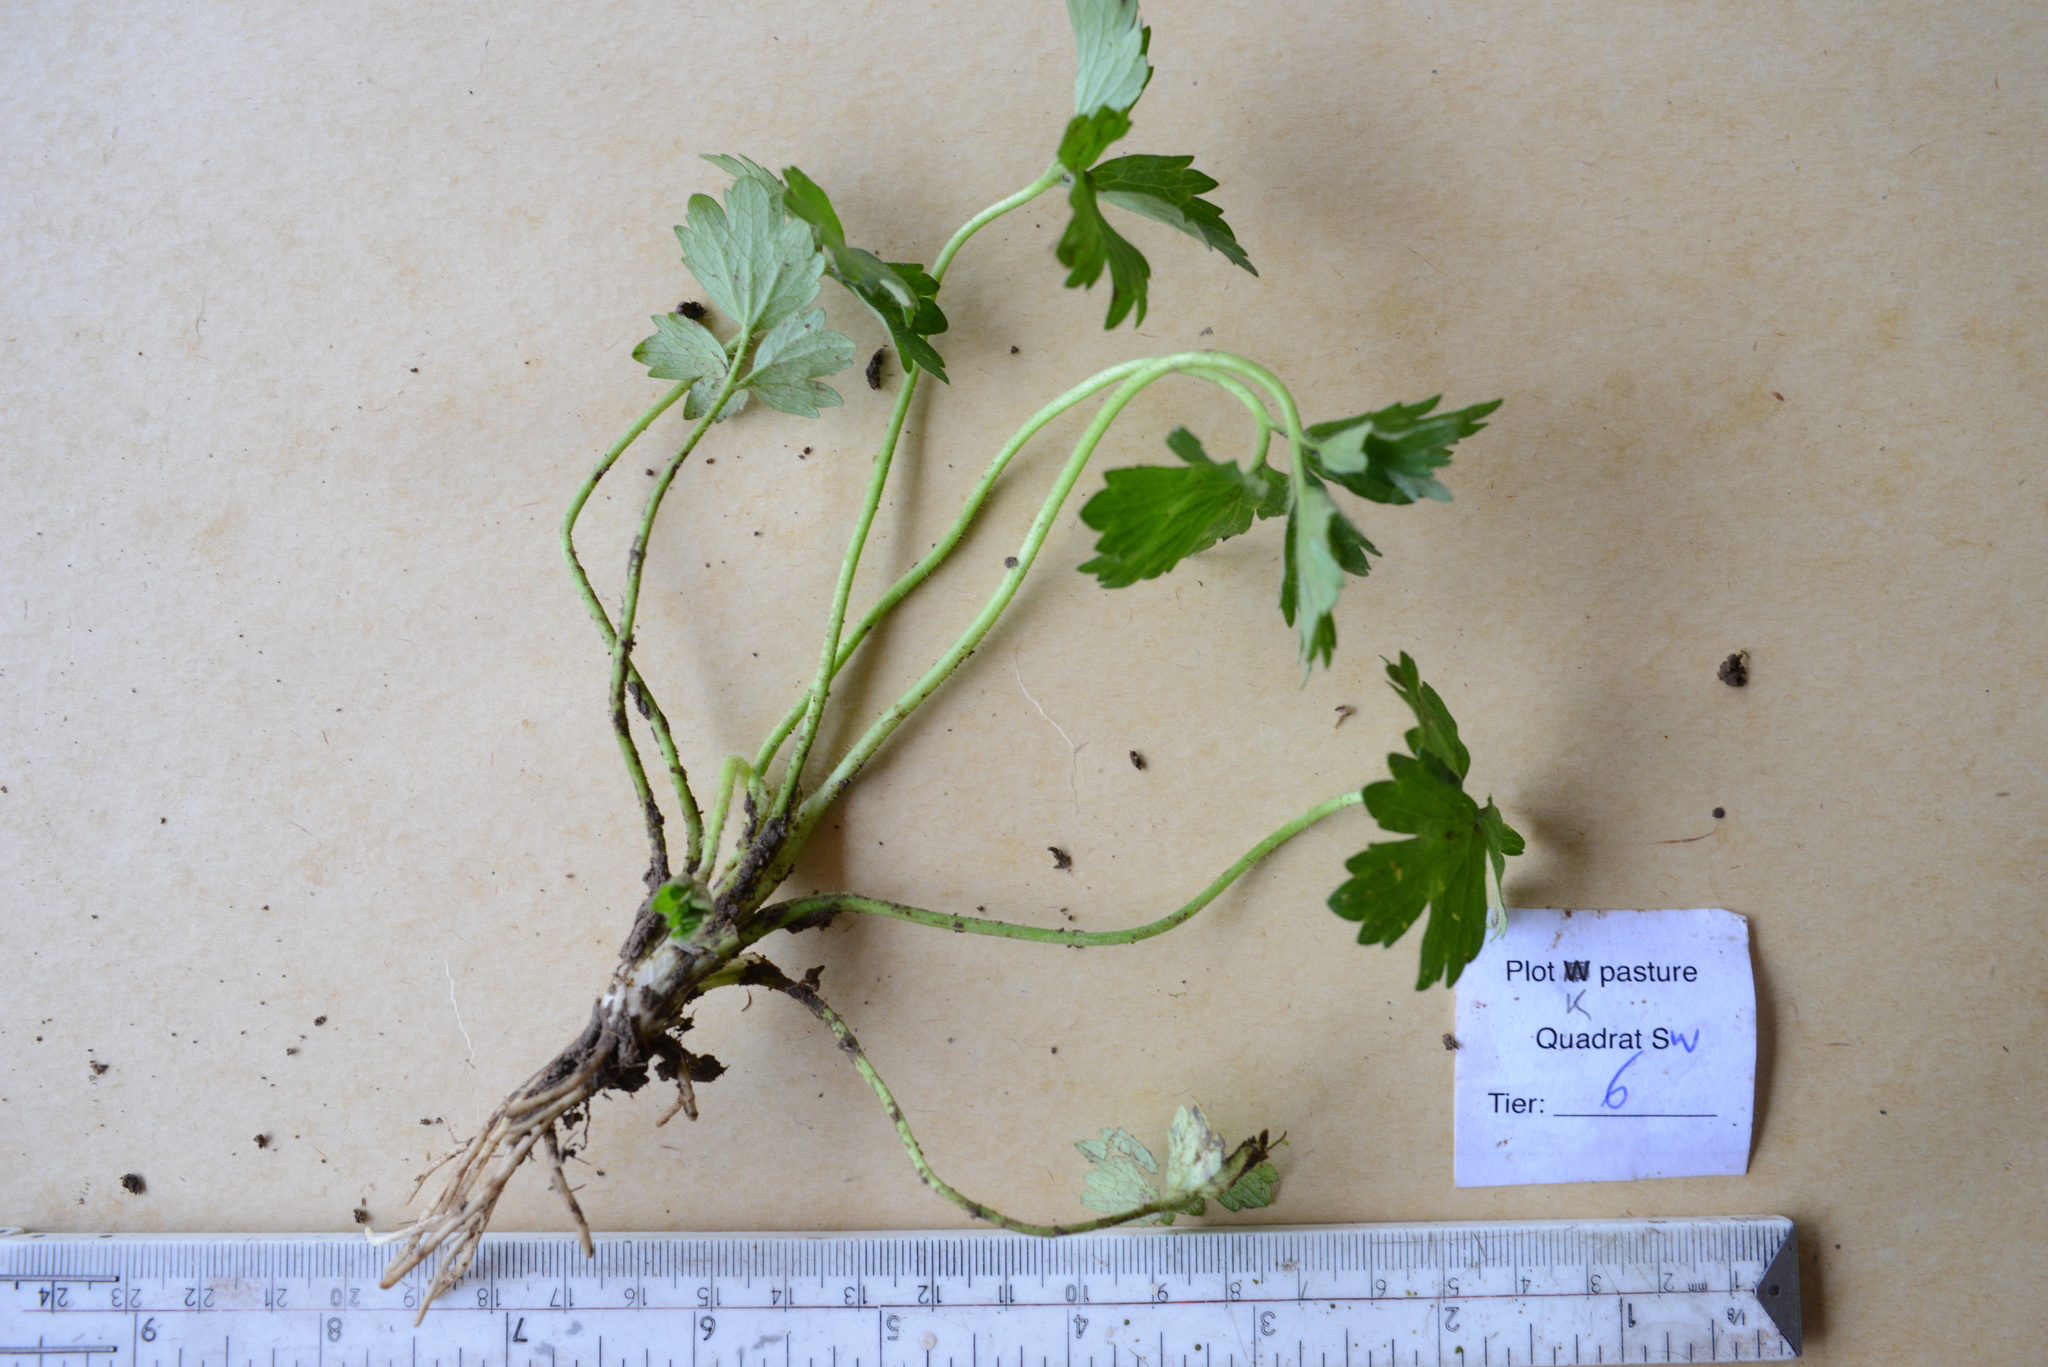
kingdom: Plantae
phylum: Tracheophyta
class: Magnoliopsida
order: Ranunculales
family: Ranunculaceae
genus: Ranunculus
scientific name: Ranunculus repens
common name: Creeping buttercup
